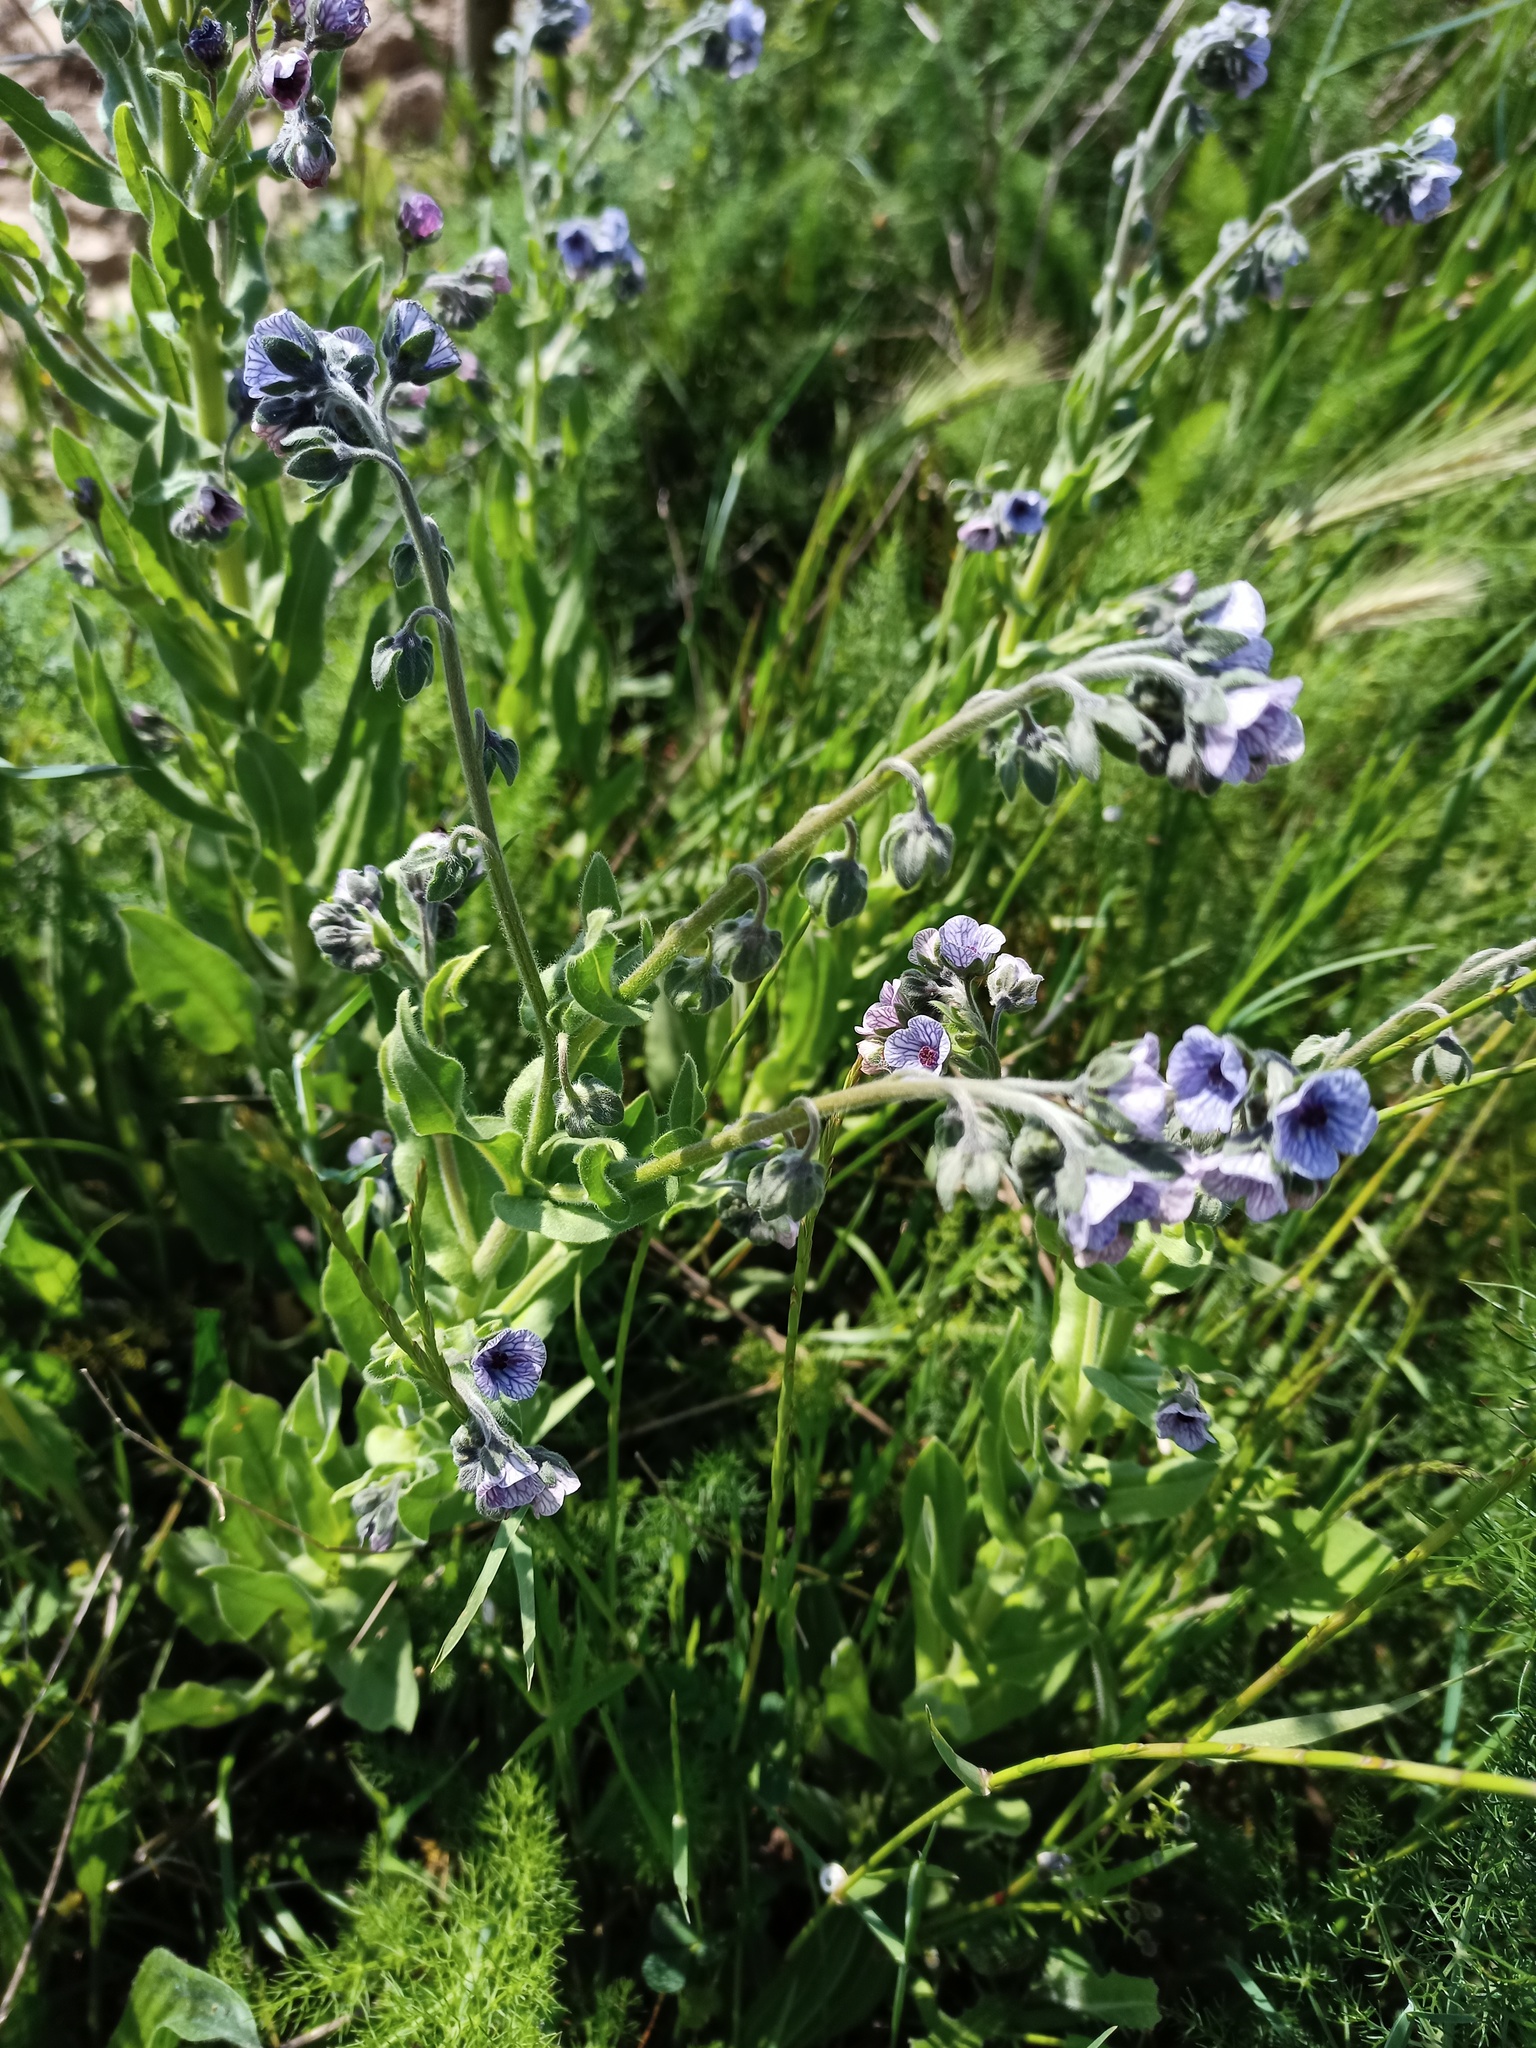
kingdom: Plantae
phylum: Tracheophyta
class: Magnoliopsida
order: Boraginales
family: Boraginaceae
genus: Cynoglossum
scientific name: Cynoglossum creticum
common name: Blue hound's tongue
